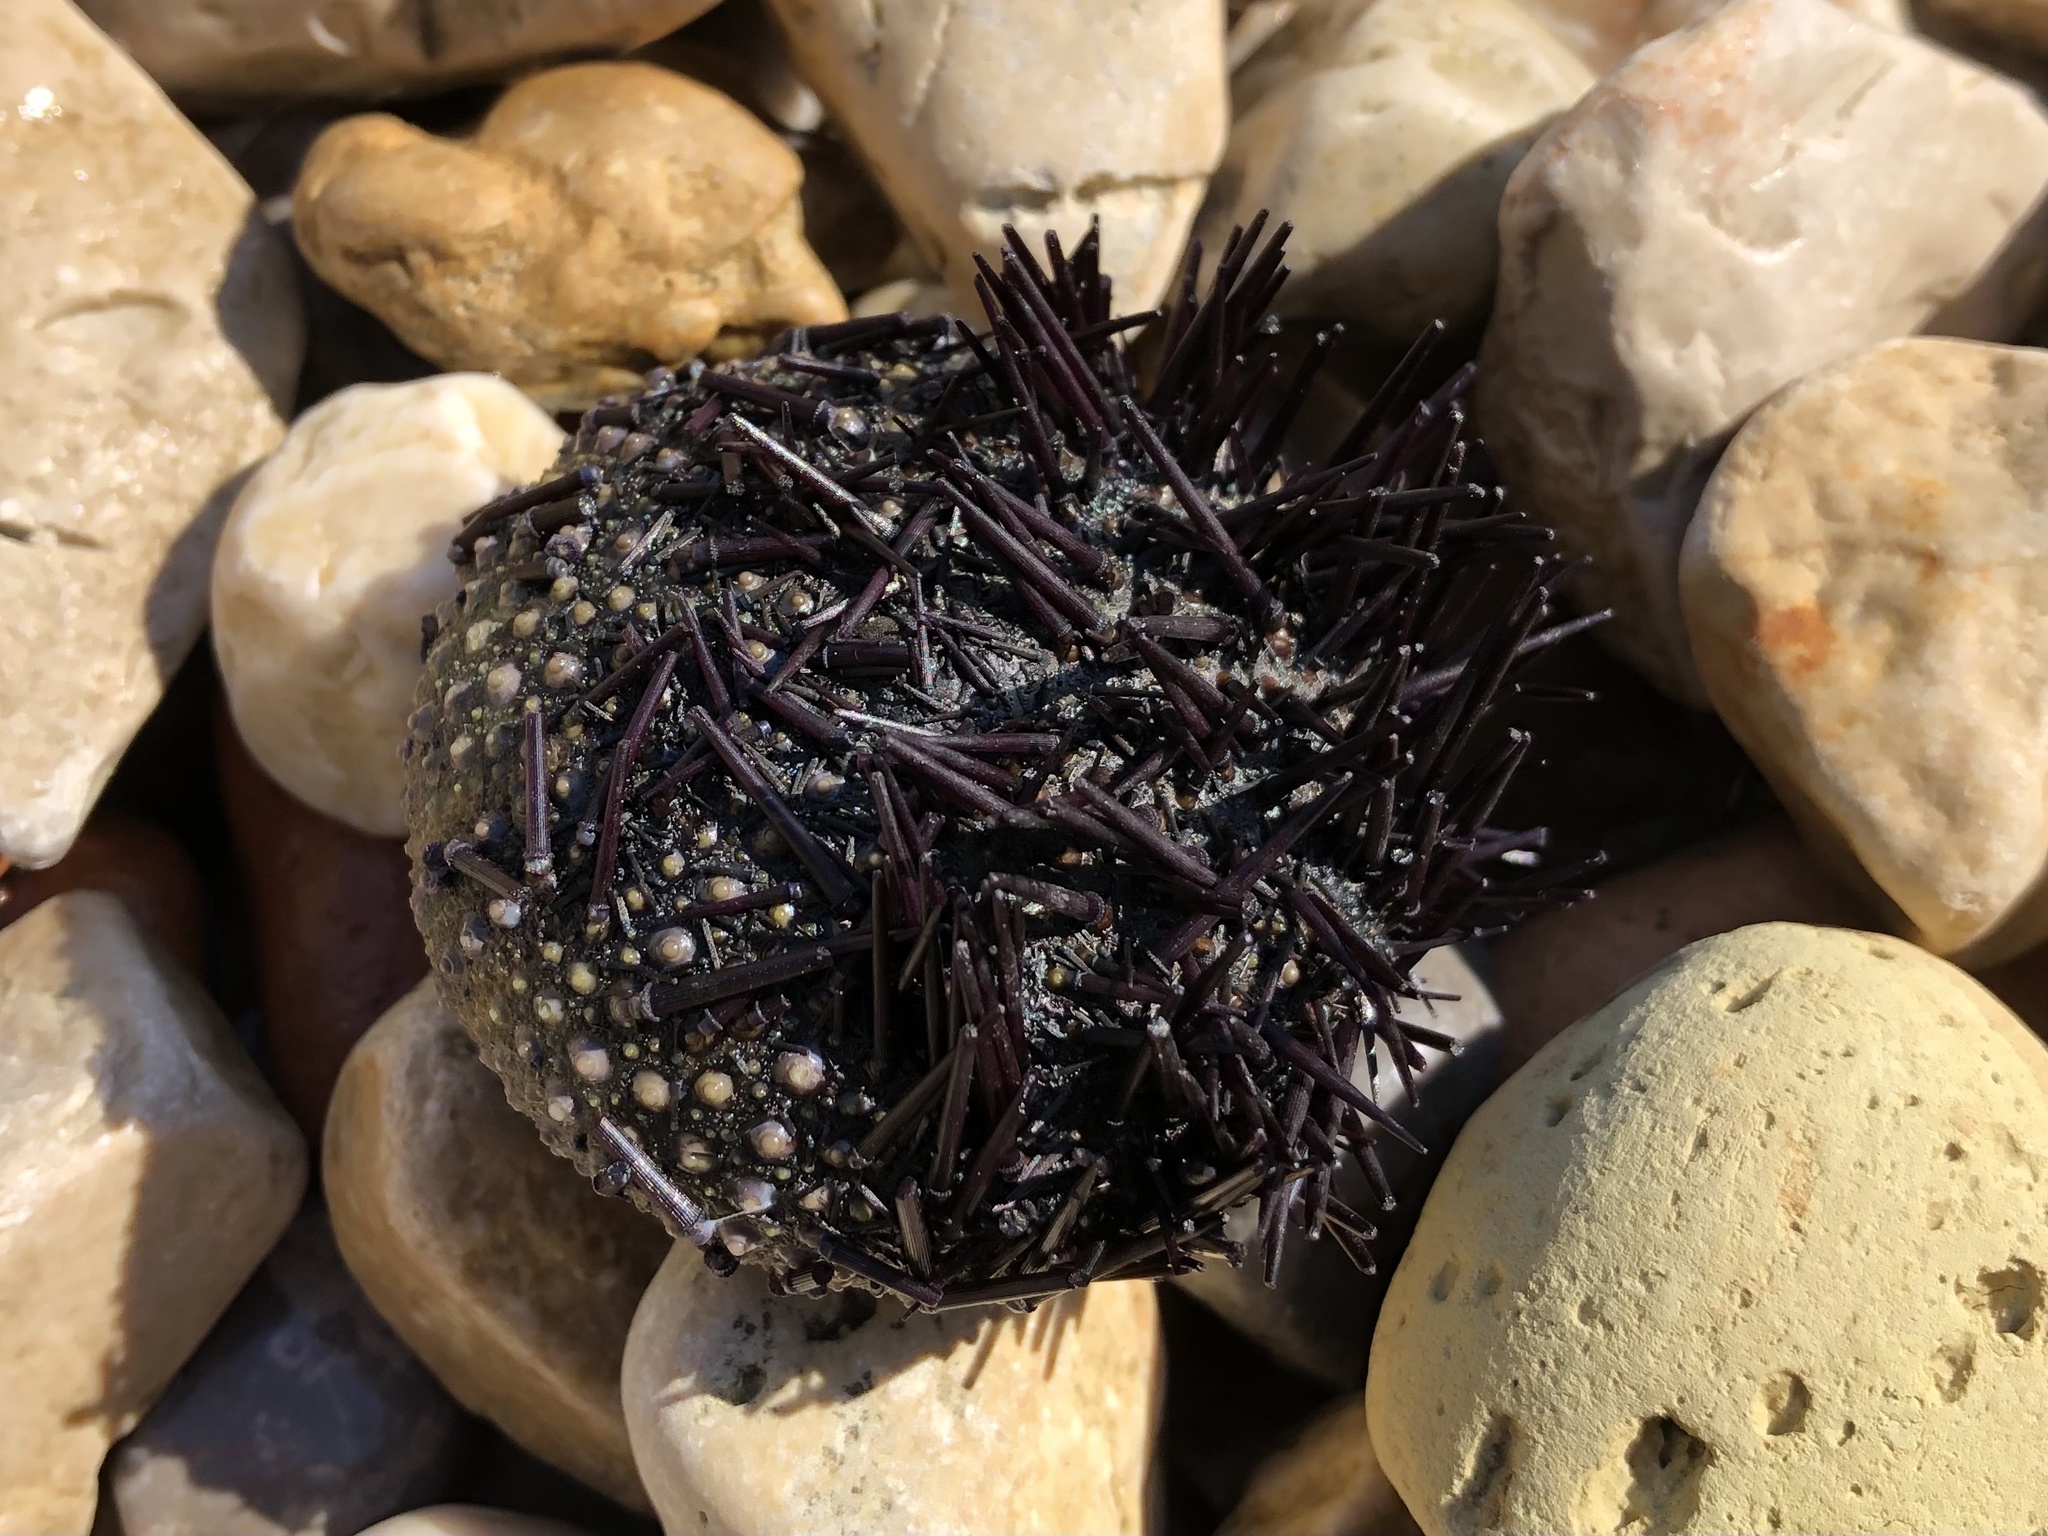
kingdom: Animalia
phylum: Echinodermata
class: Echinoidea
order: Camarodonta
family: Parechinidae
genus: Paracentrotus
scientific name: Paracentrotus lividus
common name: Purple sea urchin
